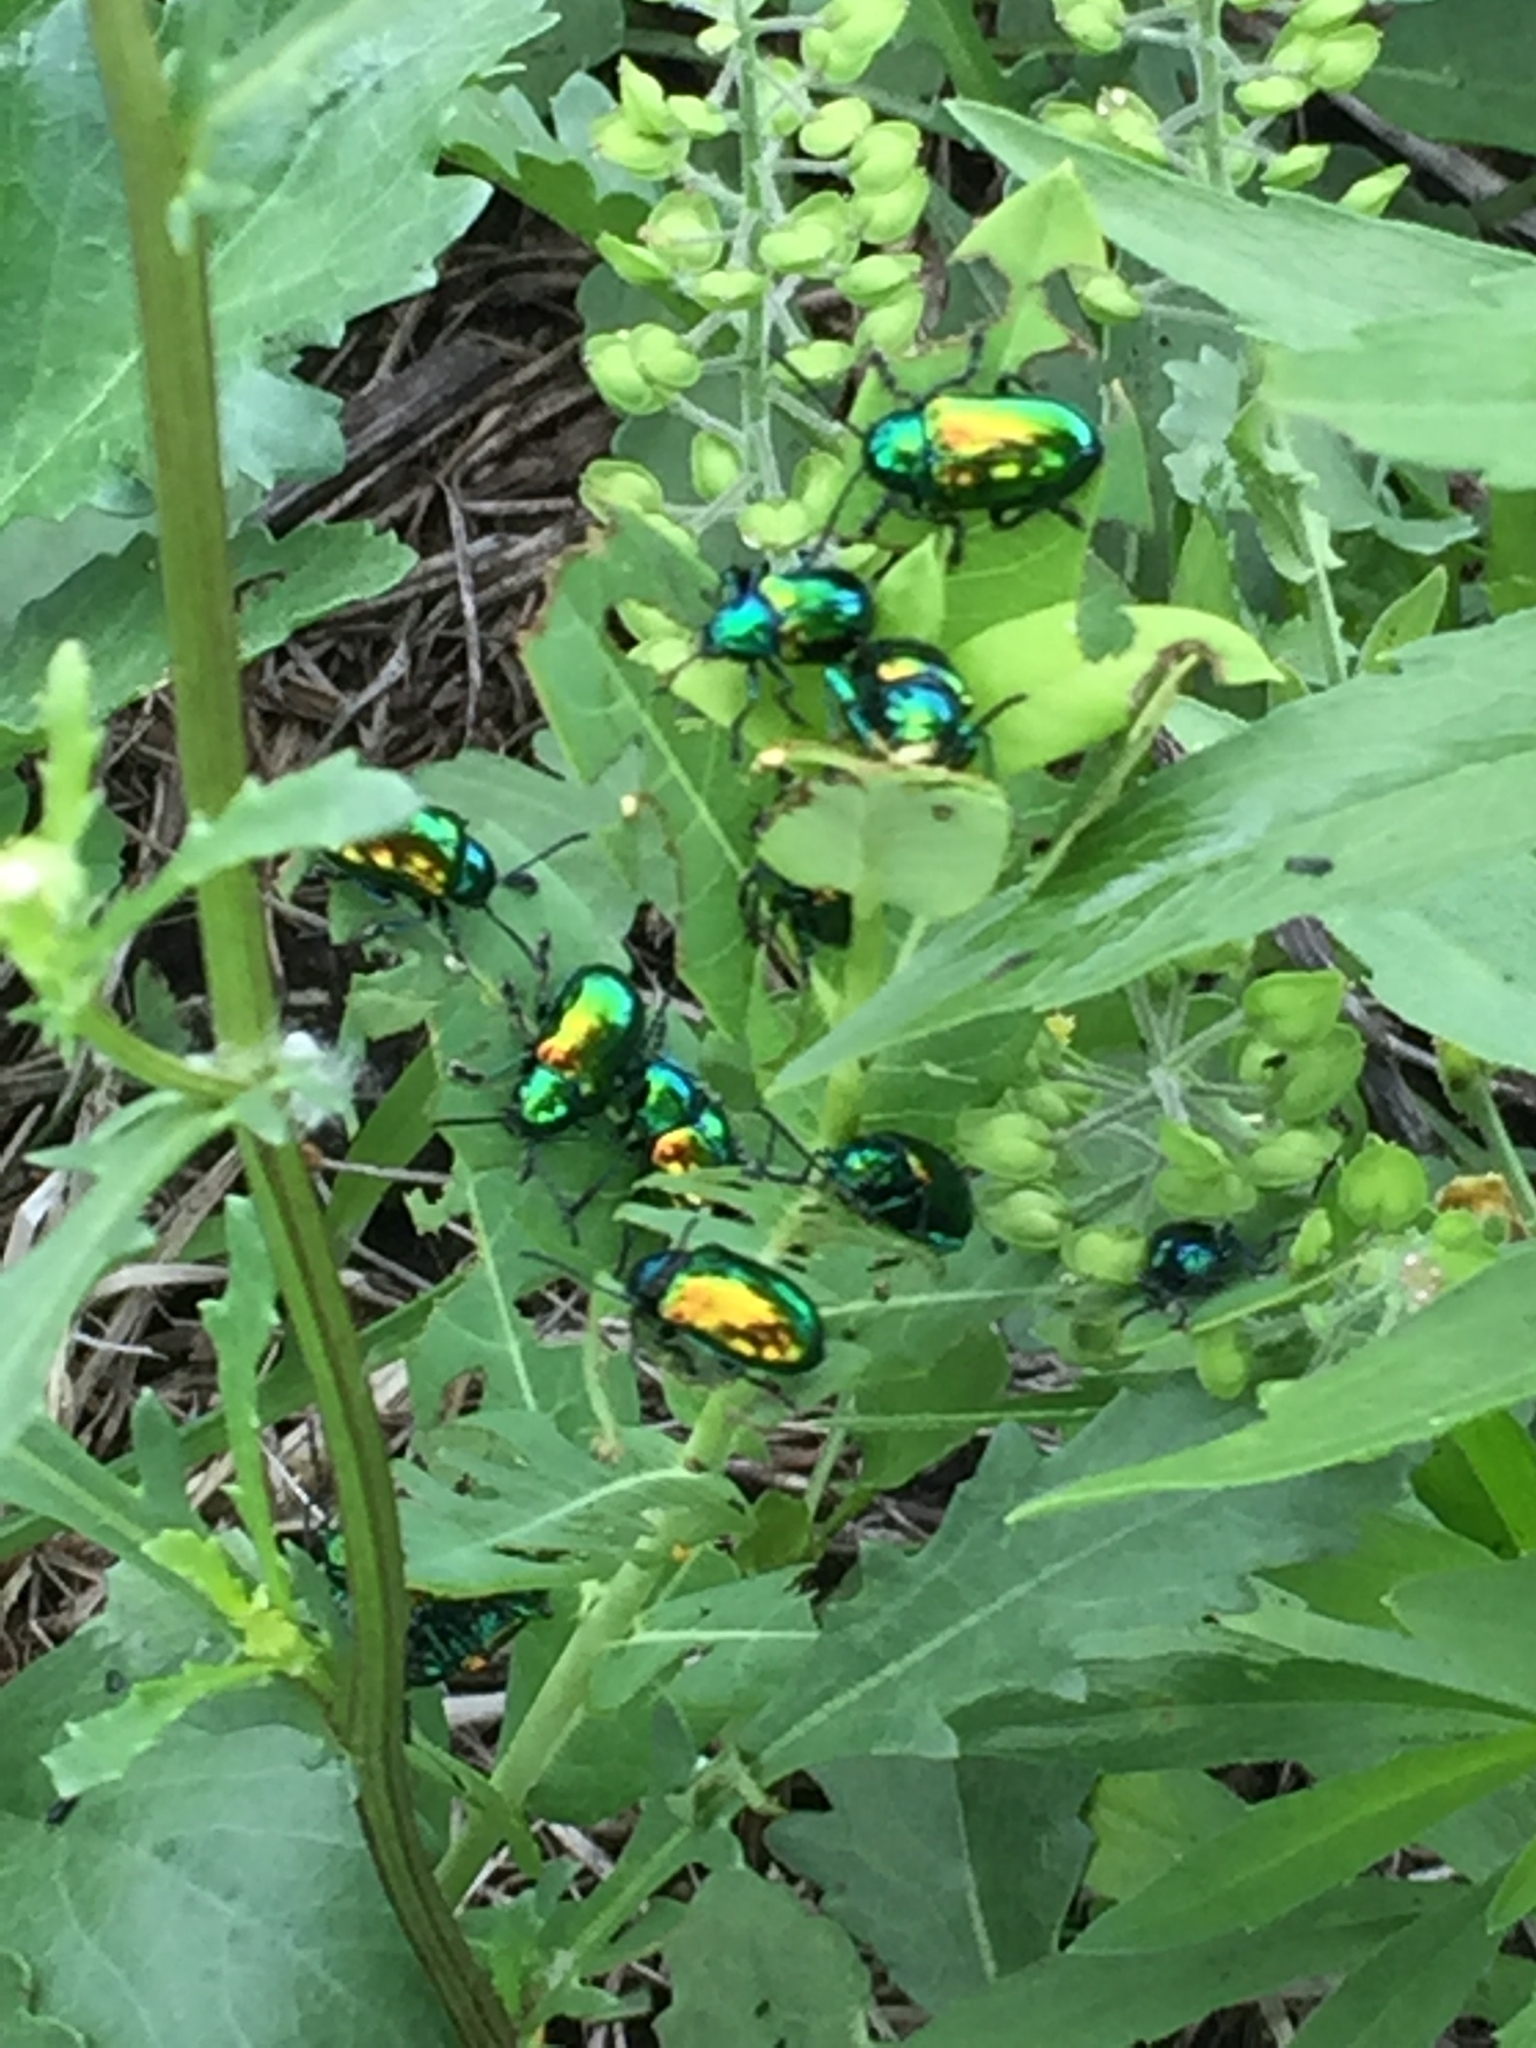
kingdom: Animalia
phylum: Arthropoda
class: Insecta
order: Coleoptera
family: Chrysomelidae
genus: Chrysochus
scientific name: Chrysochus auratus
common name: Dogbane leaf beetle
